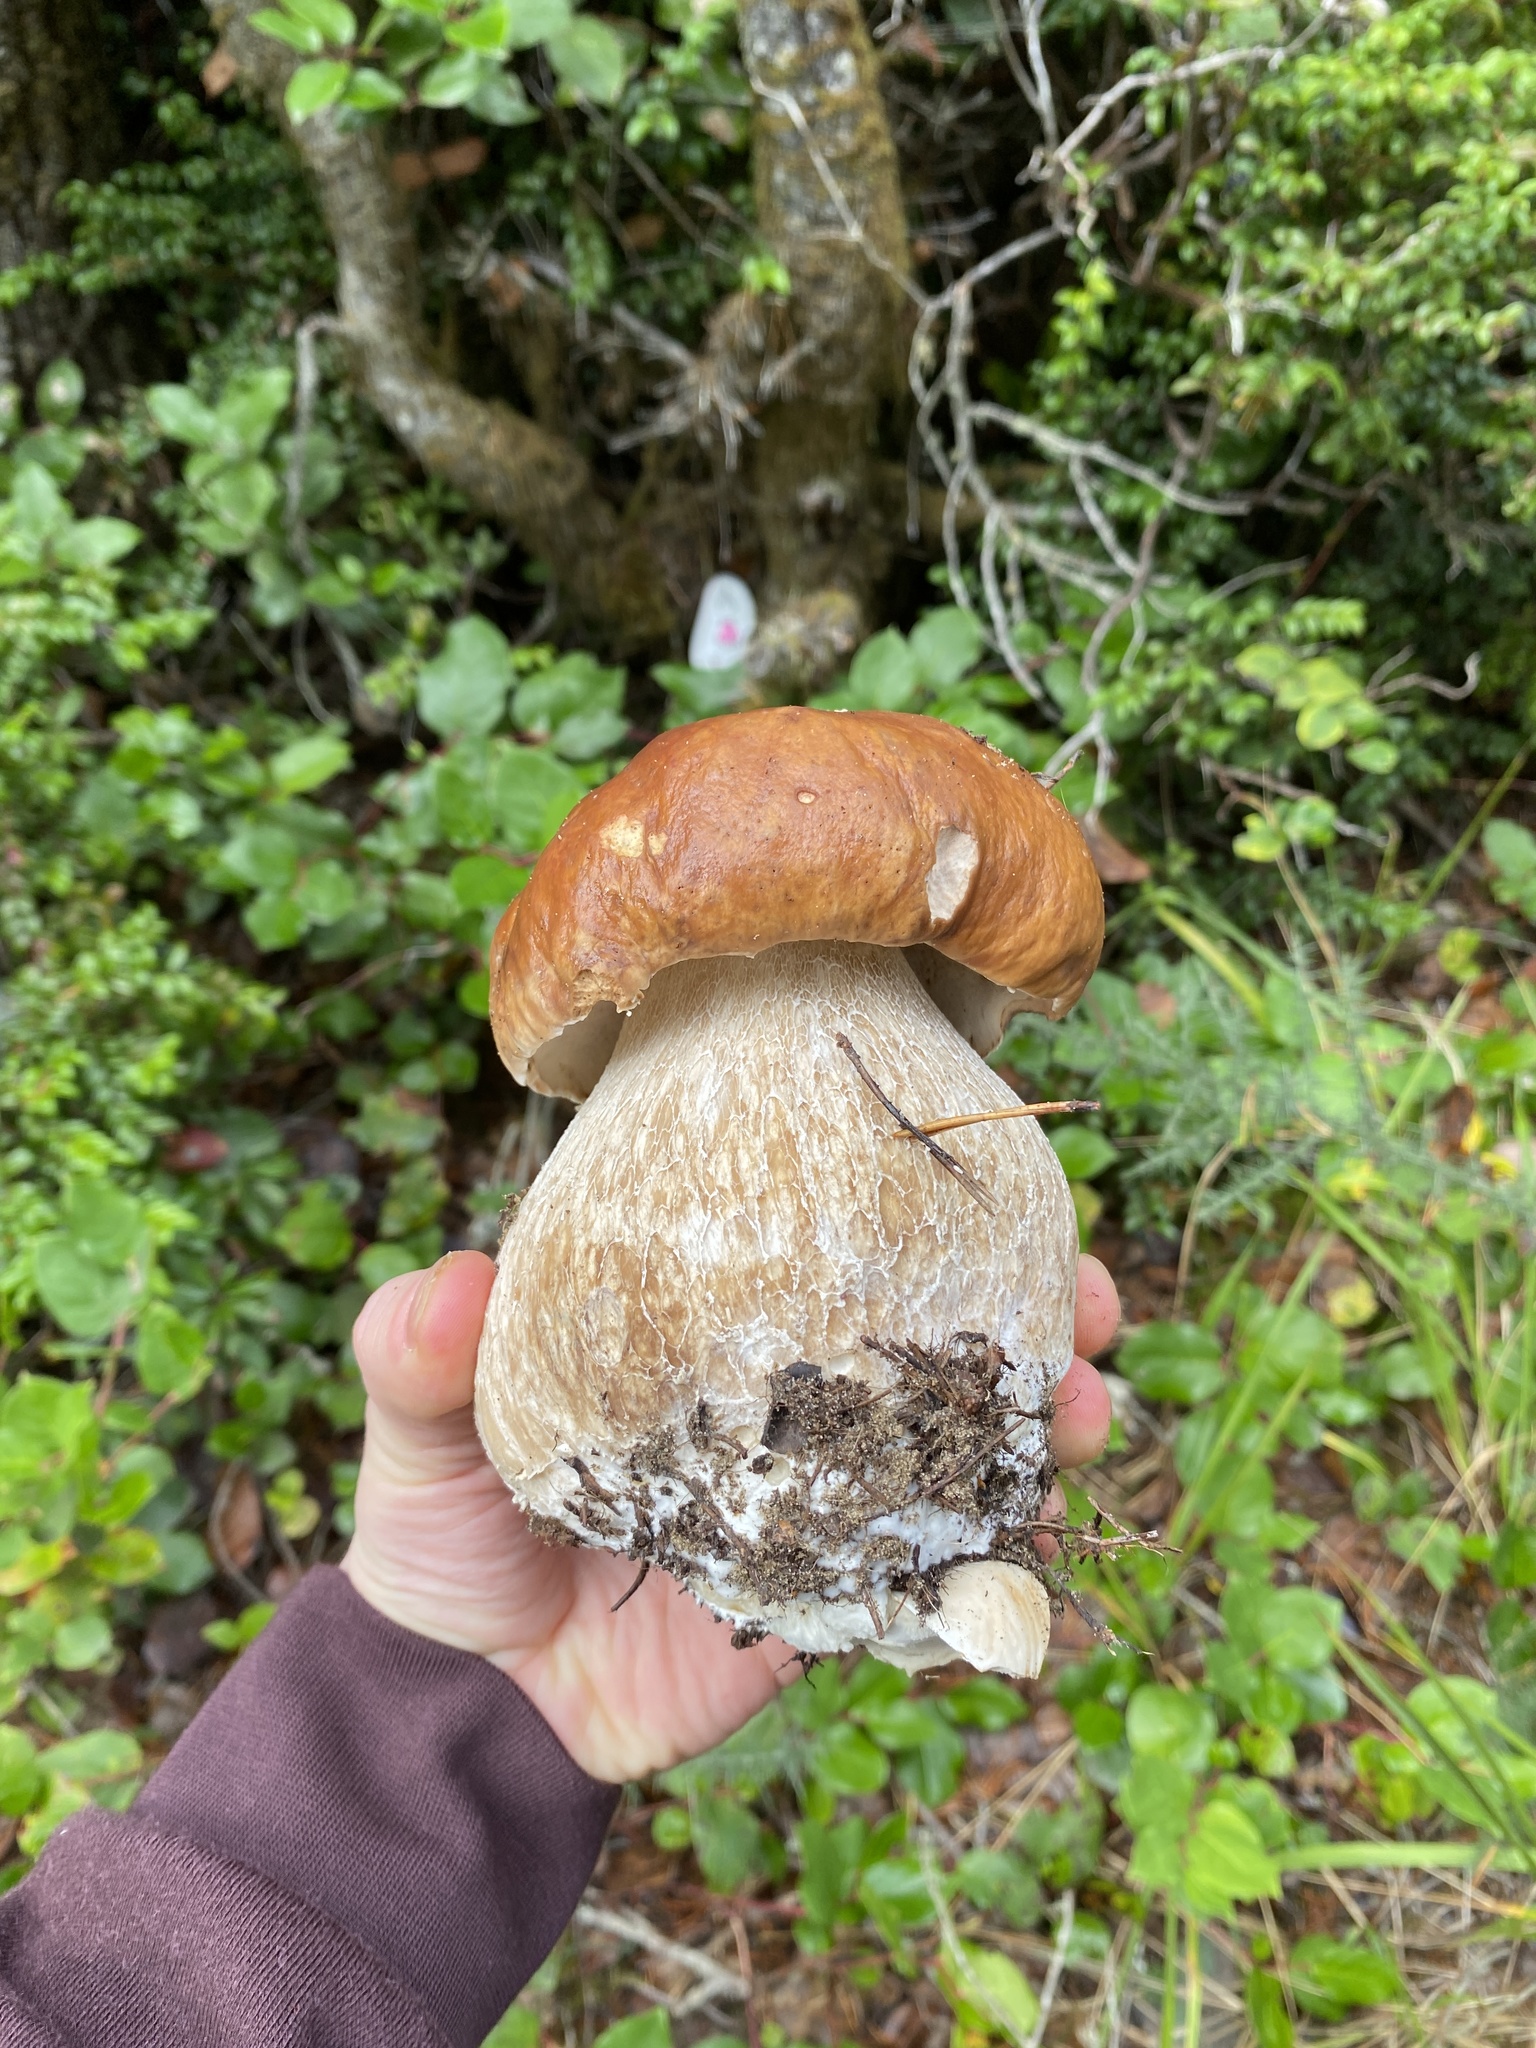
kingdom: Fungi
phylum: Basidiomycota
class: Agaricomycetes
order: Boletales
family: Boletaceae
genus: Boletus
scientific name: Boletus edulis
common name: Cep
